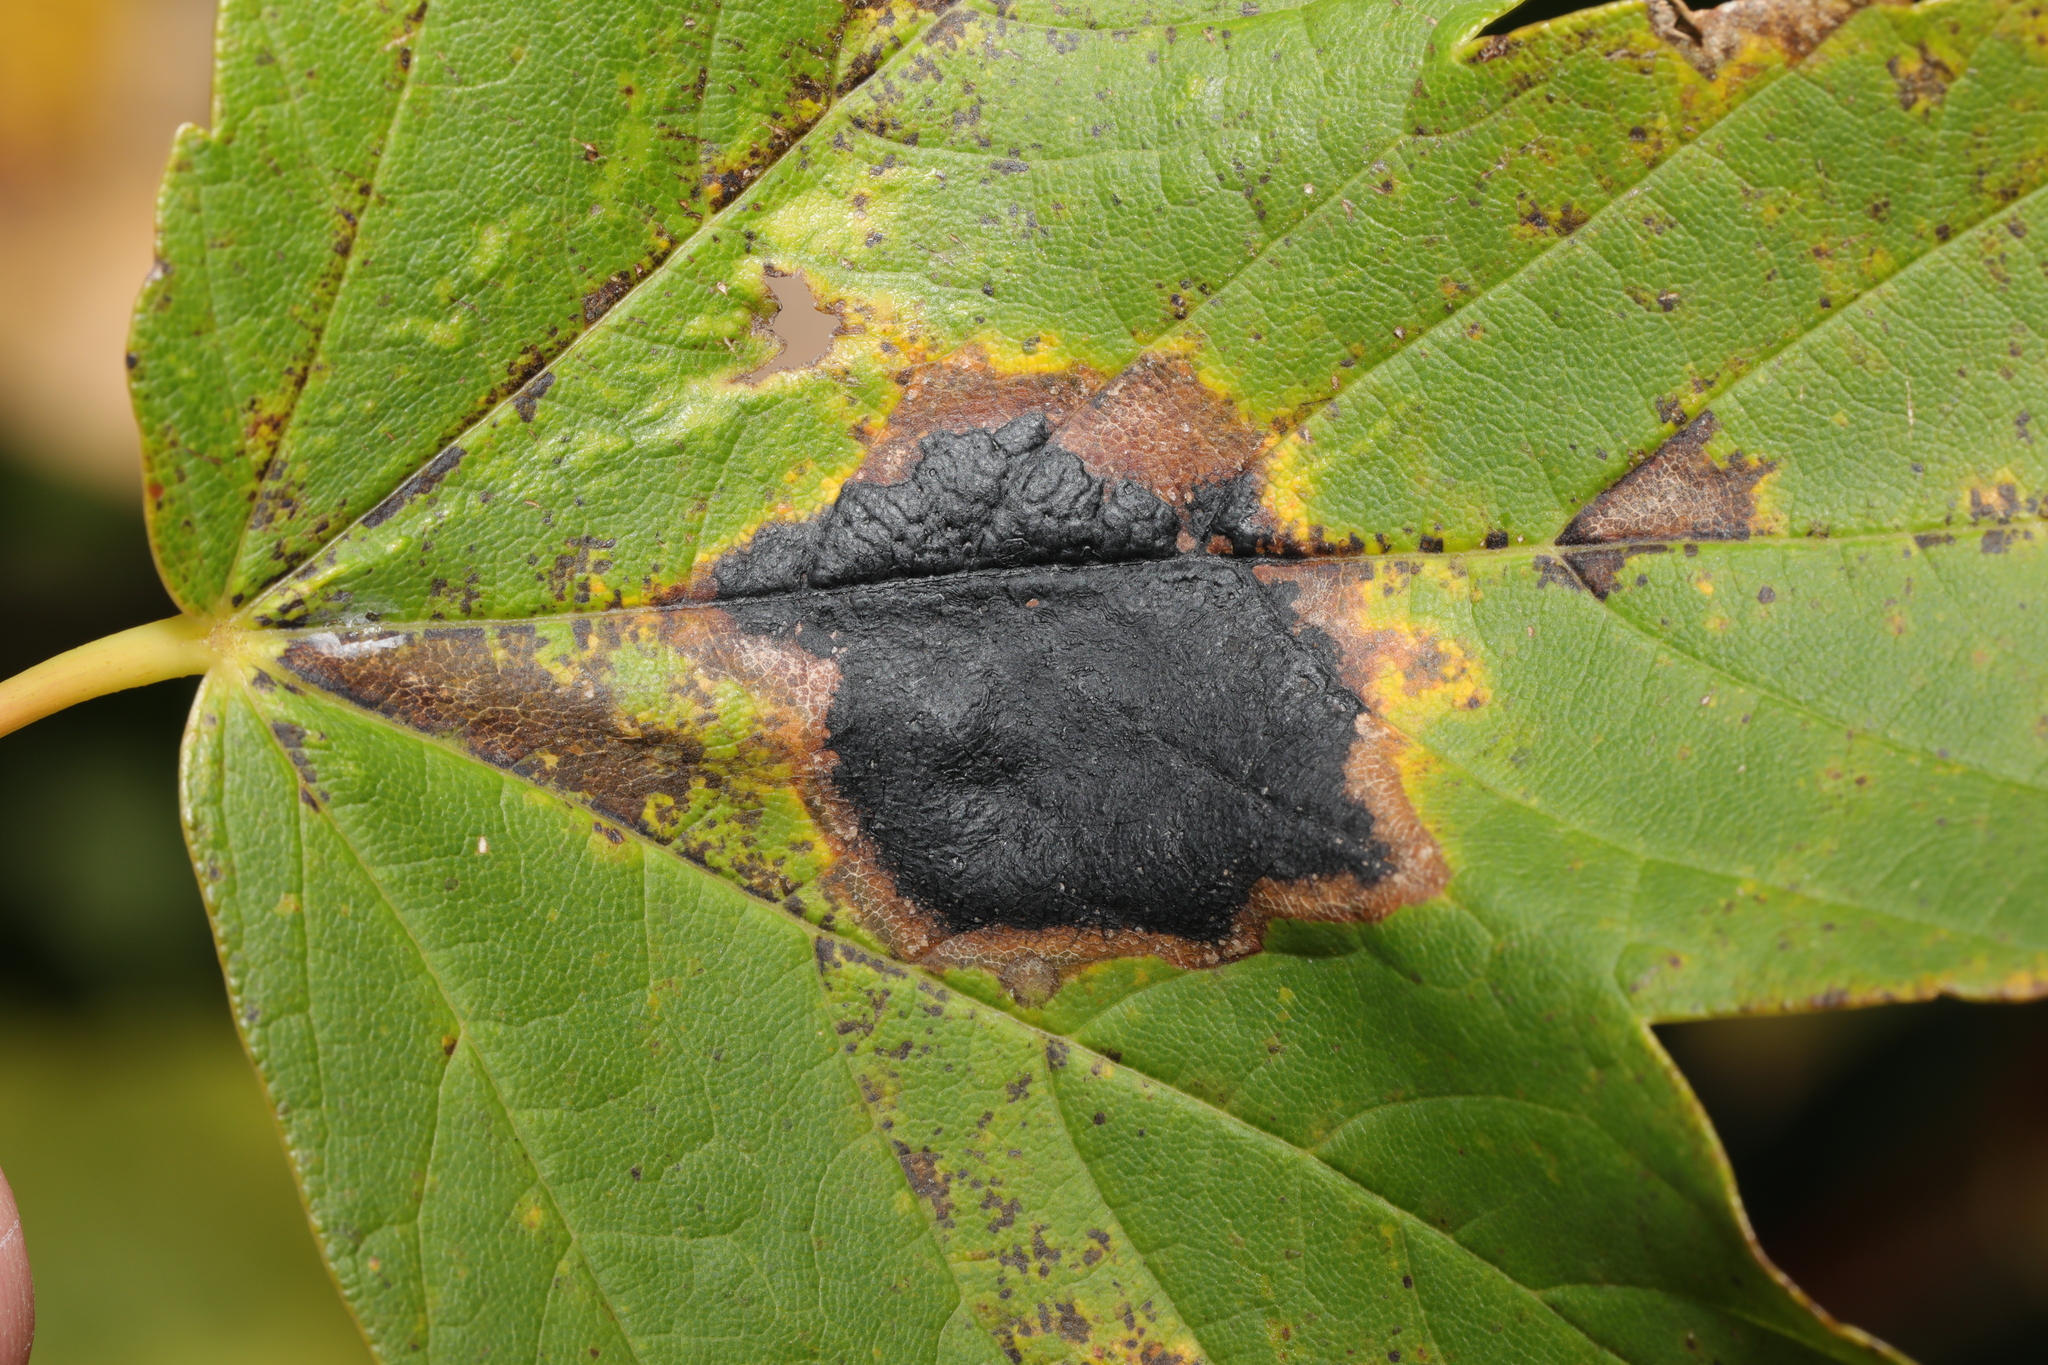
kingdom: Fungi
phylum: Ascomycota
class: Leotiomycetes
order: Rhytismatales
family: Rhytismataceae
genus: Rhytisma
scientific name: Rhytisma acerinum
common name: European tar spot
